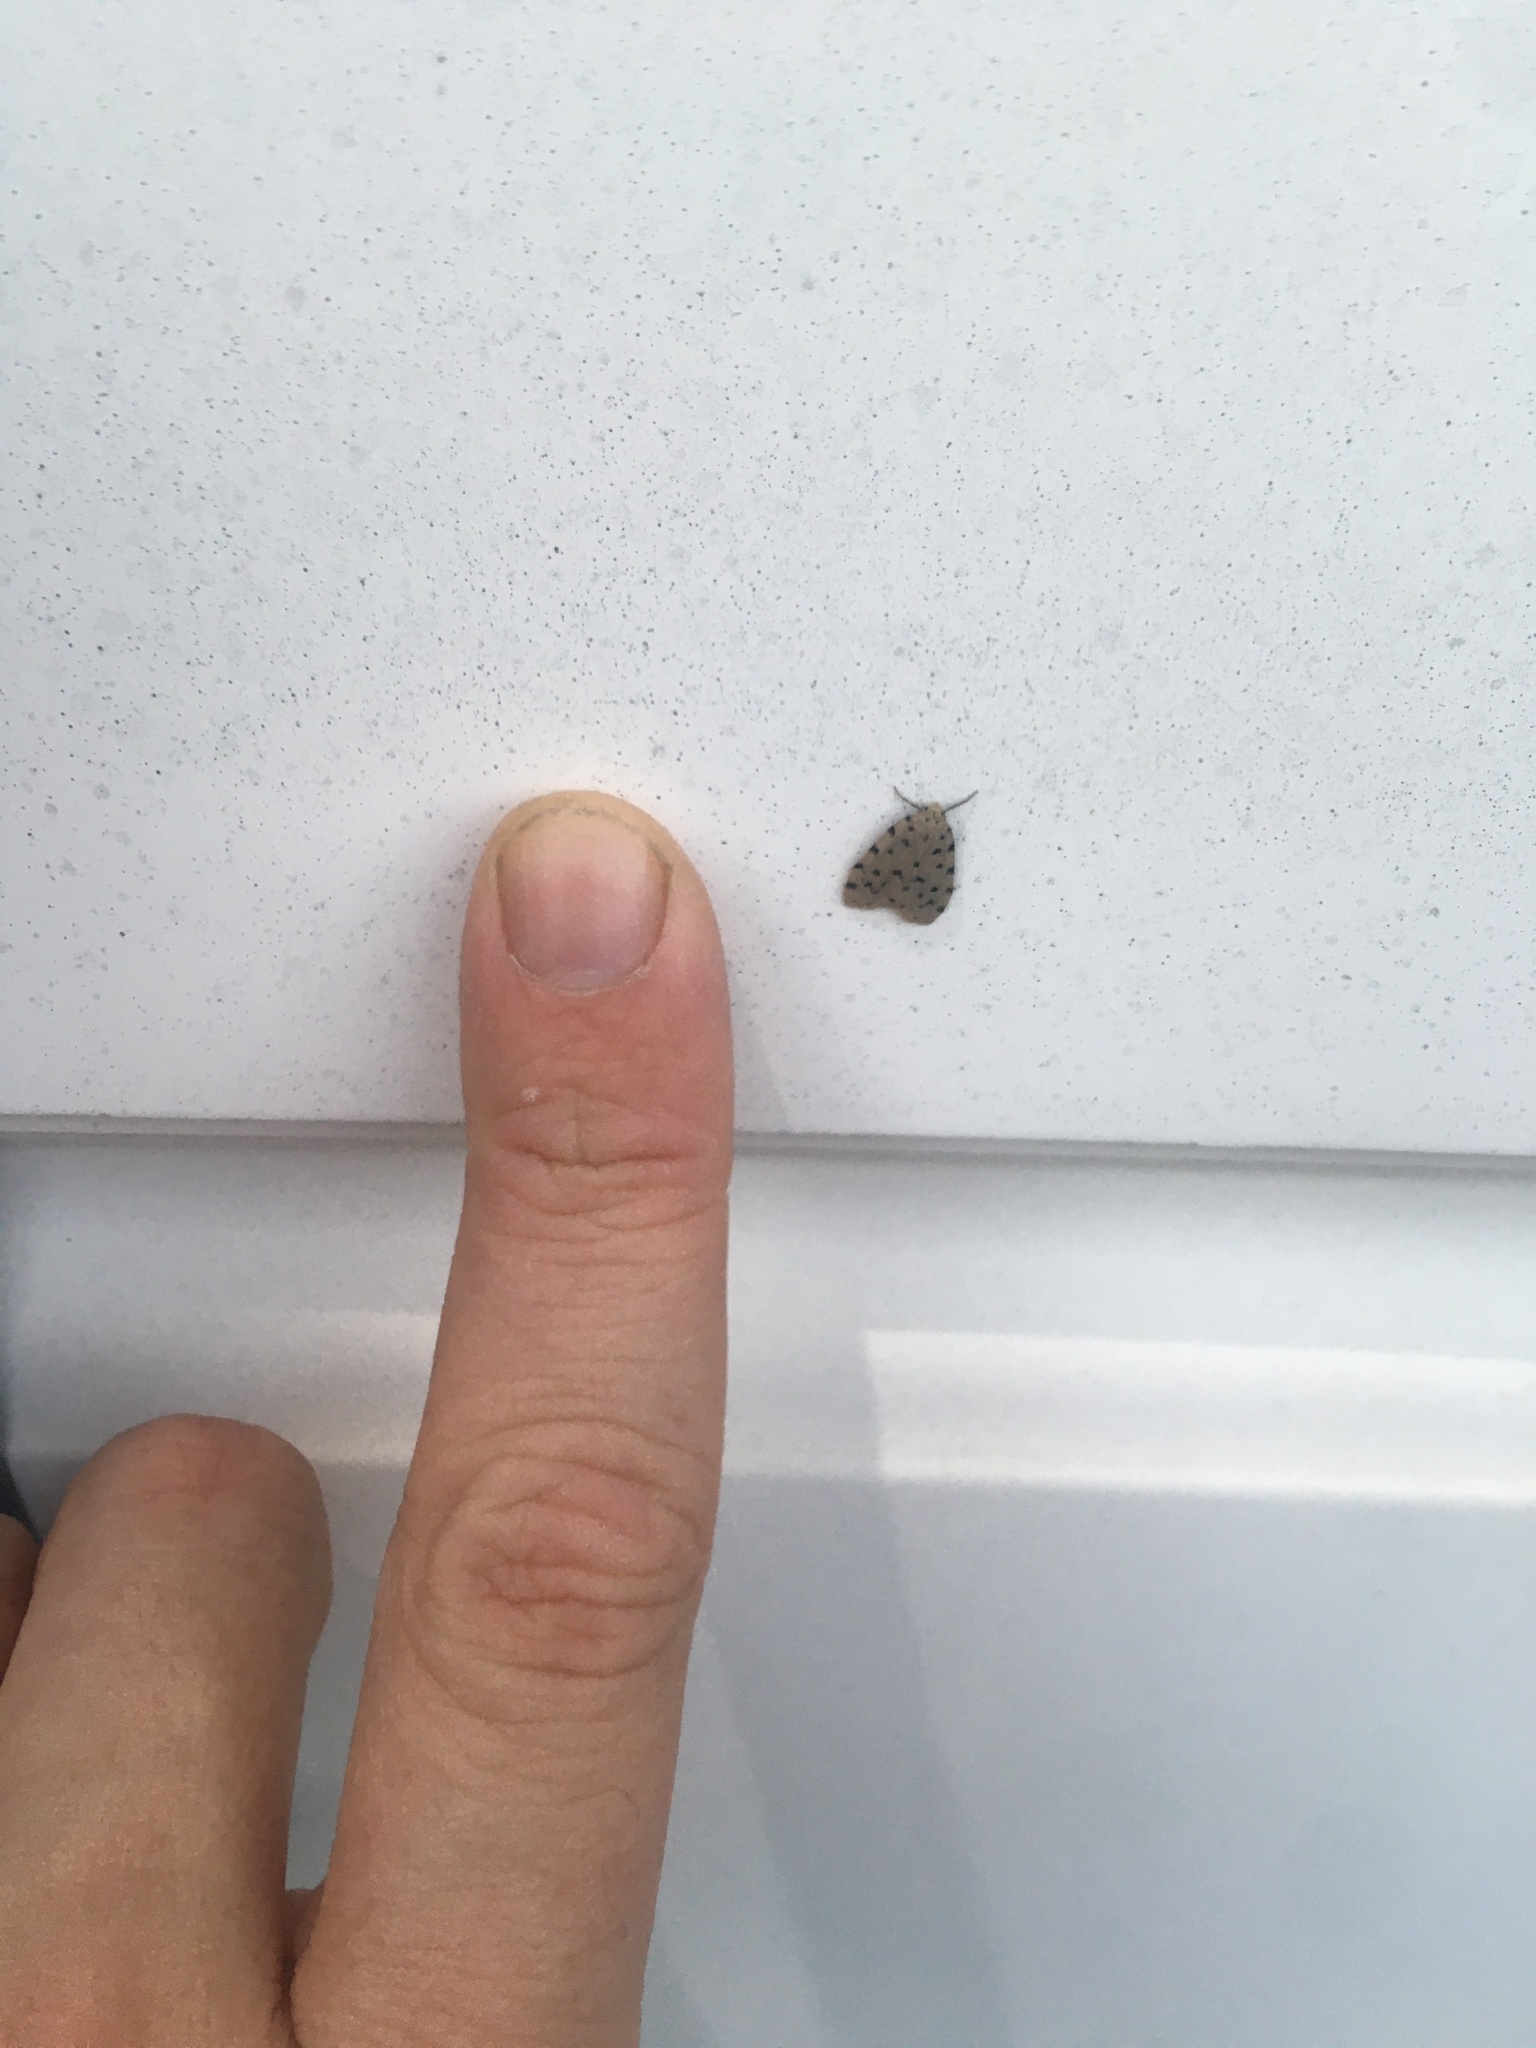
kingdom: Animalia
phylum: Arthropoda
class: Insecta
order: Lepidoptera
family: Erebidae
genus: Siccia
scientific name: Siccia caffra
